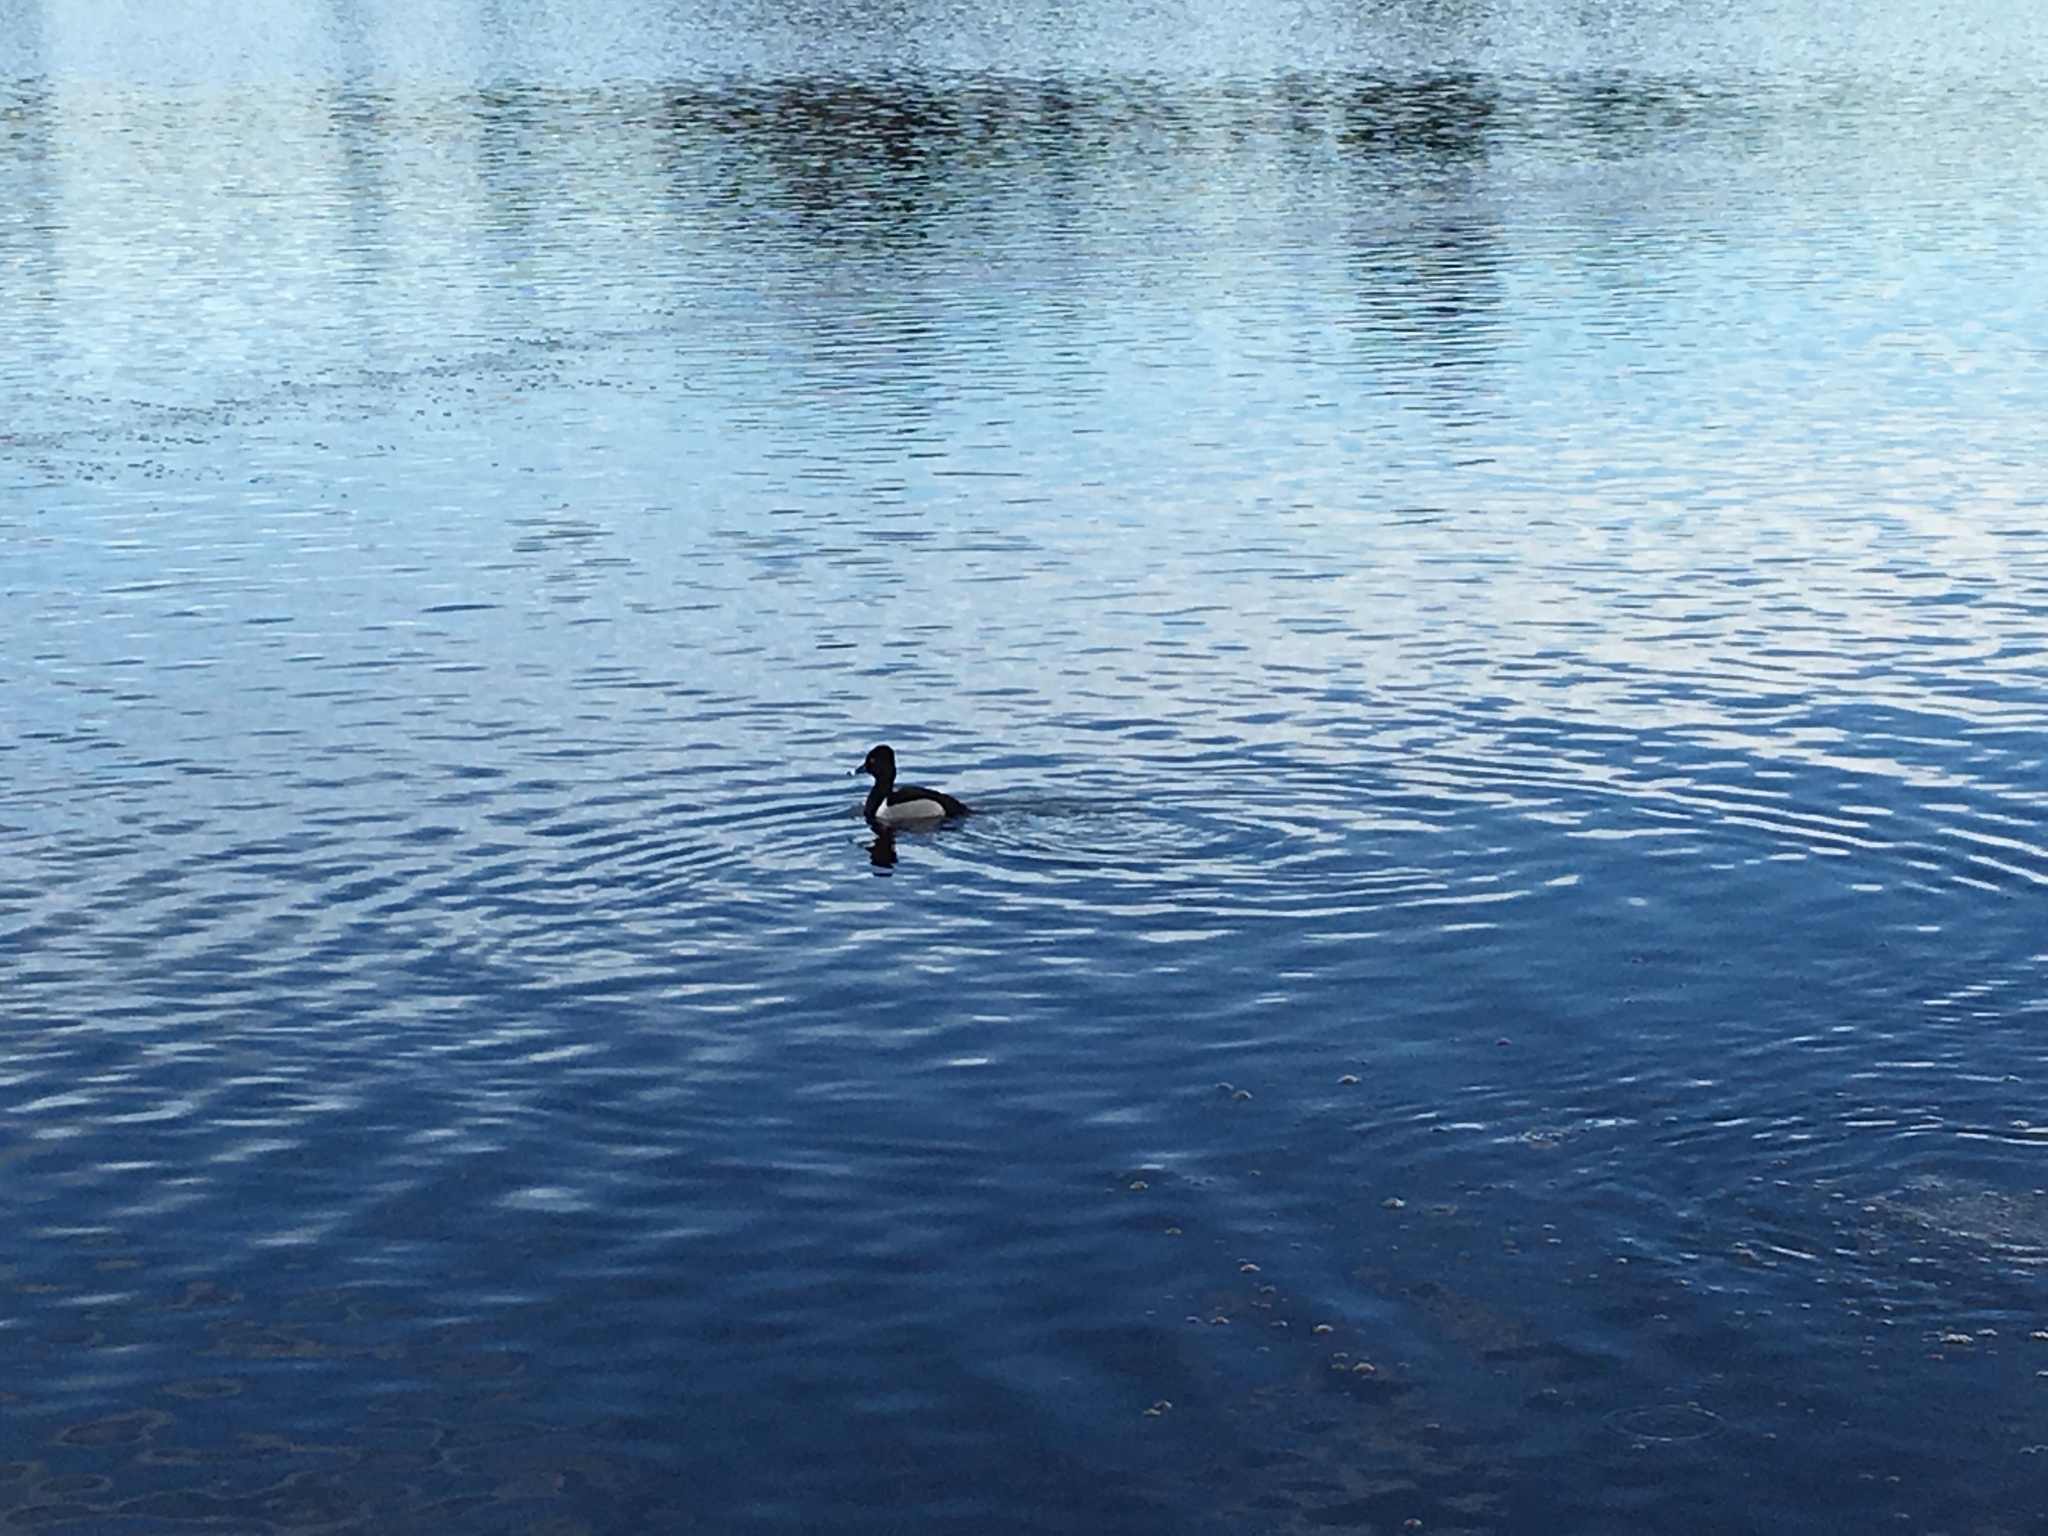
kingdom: Animalia
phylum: Chordata
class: Aves
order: Anseriformes
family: Anatidae
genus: Aythya
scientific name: Aythya collaris
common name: Ring-necked duck
